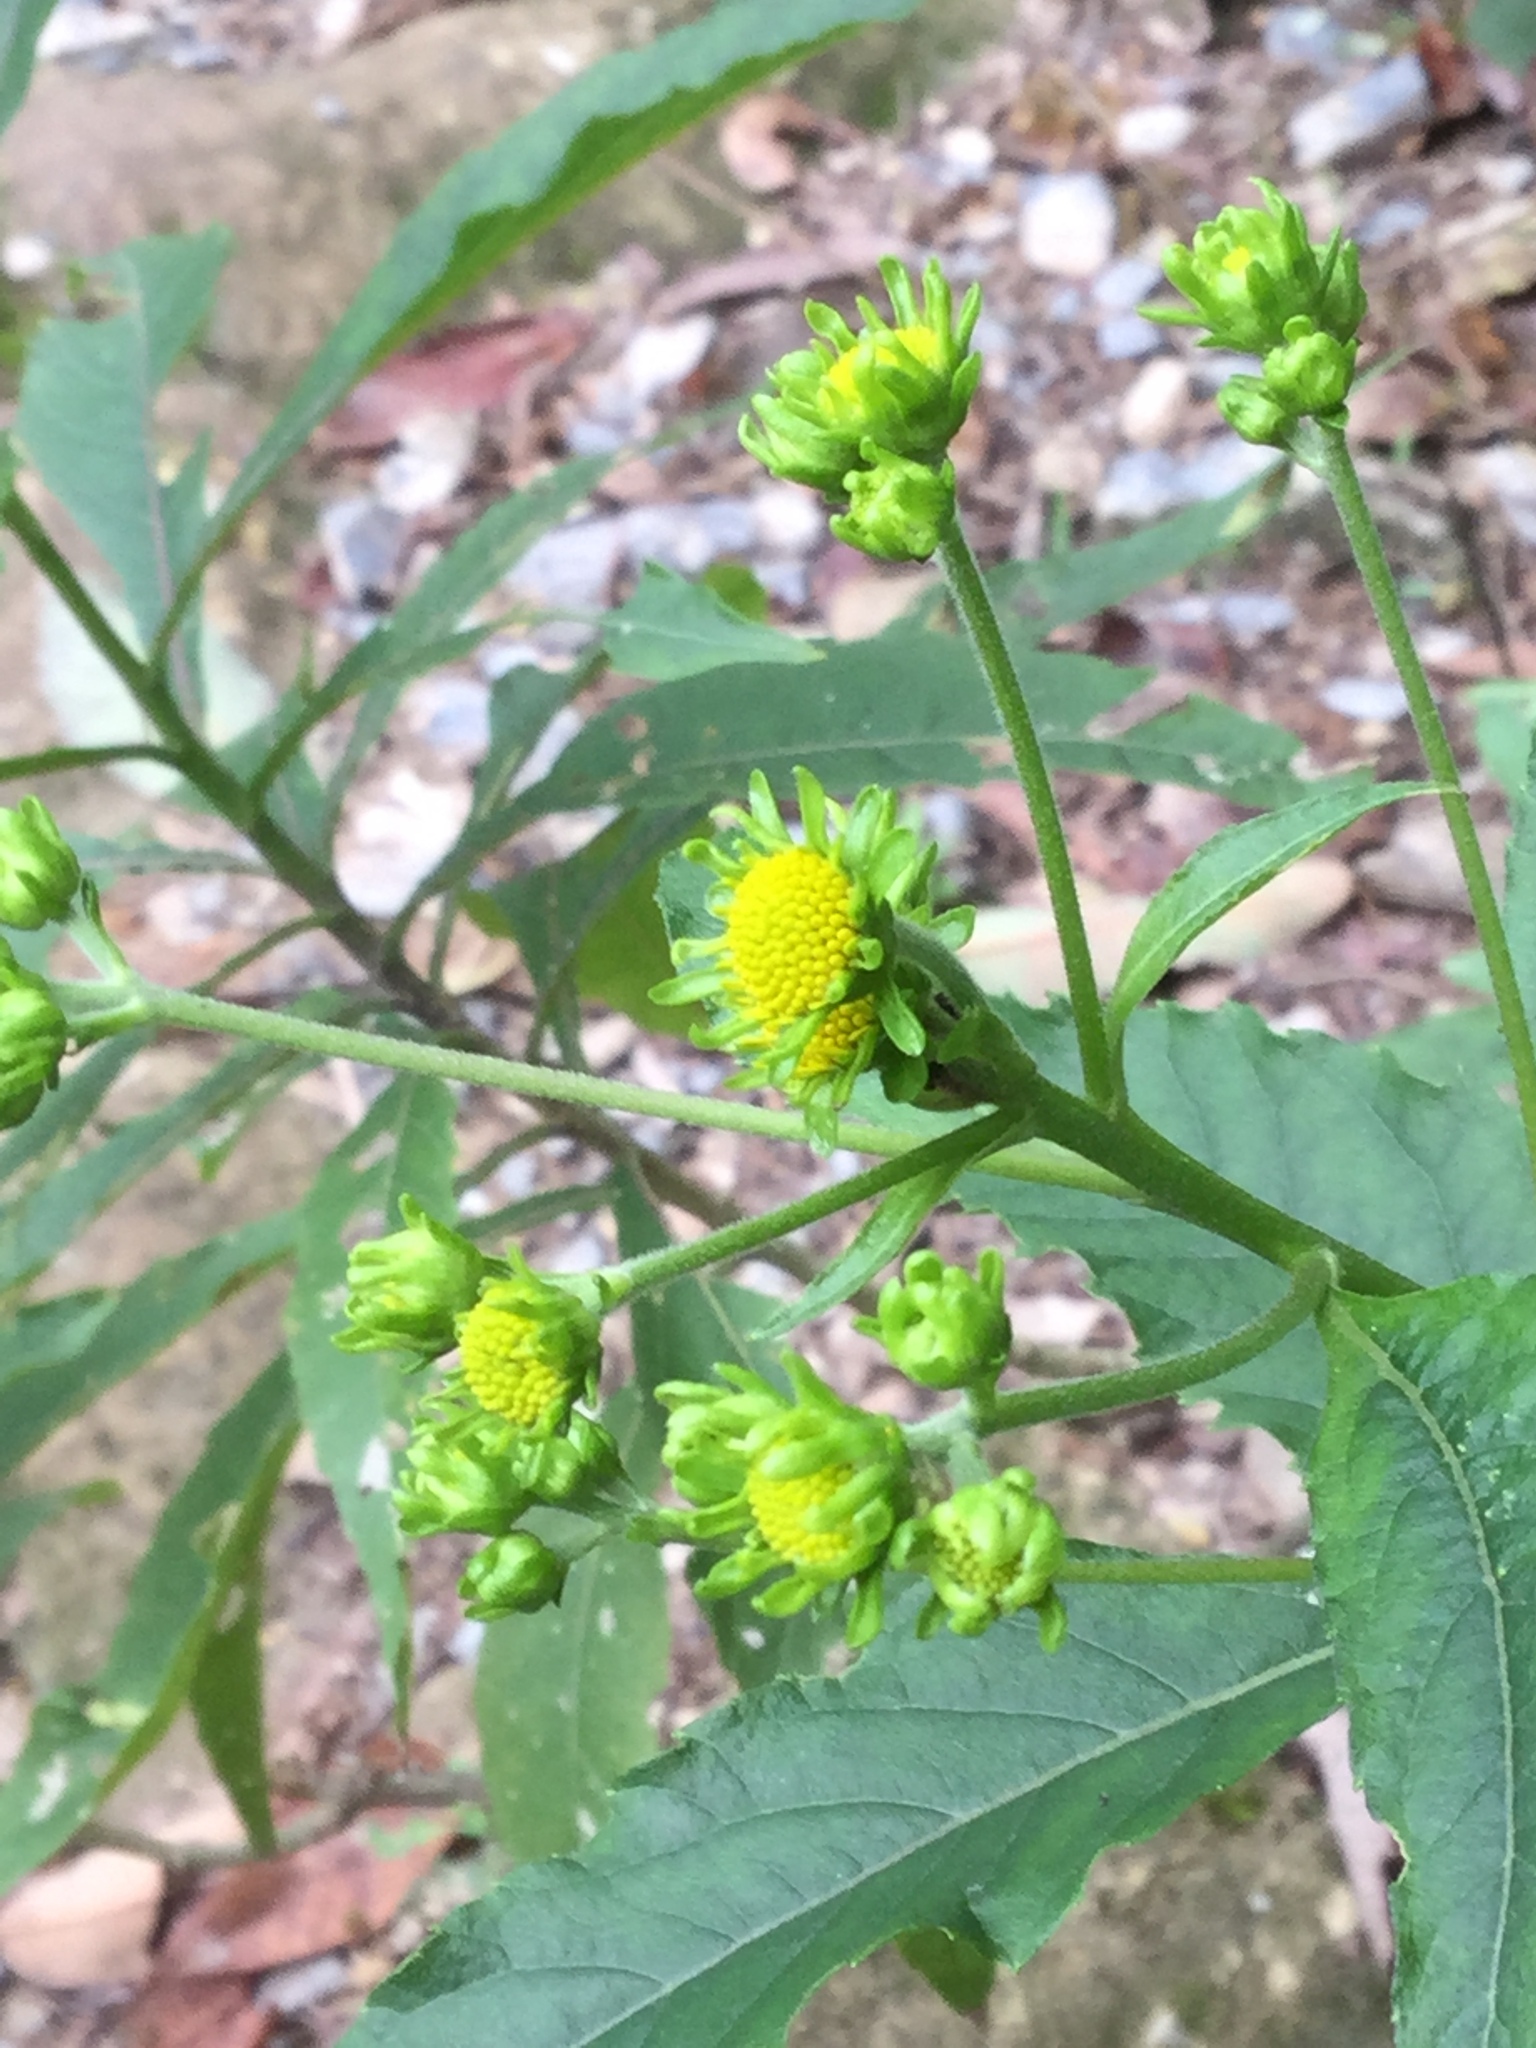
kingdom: Plantae
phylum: Tracheophyta
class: Magnoliopsida
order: Asterales
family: Asteraceae
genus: Verbesina
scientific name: Verbesina persicifolia
